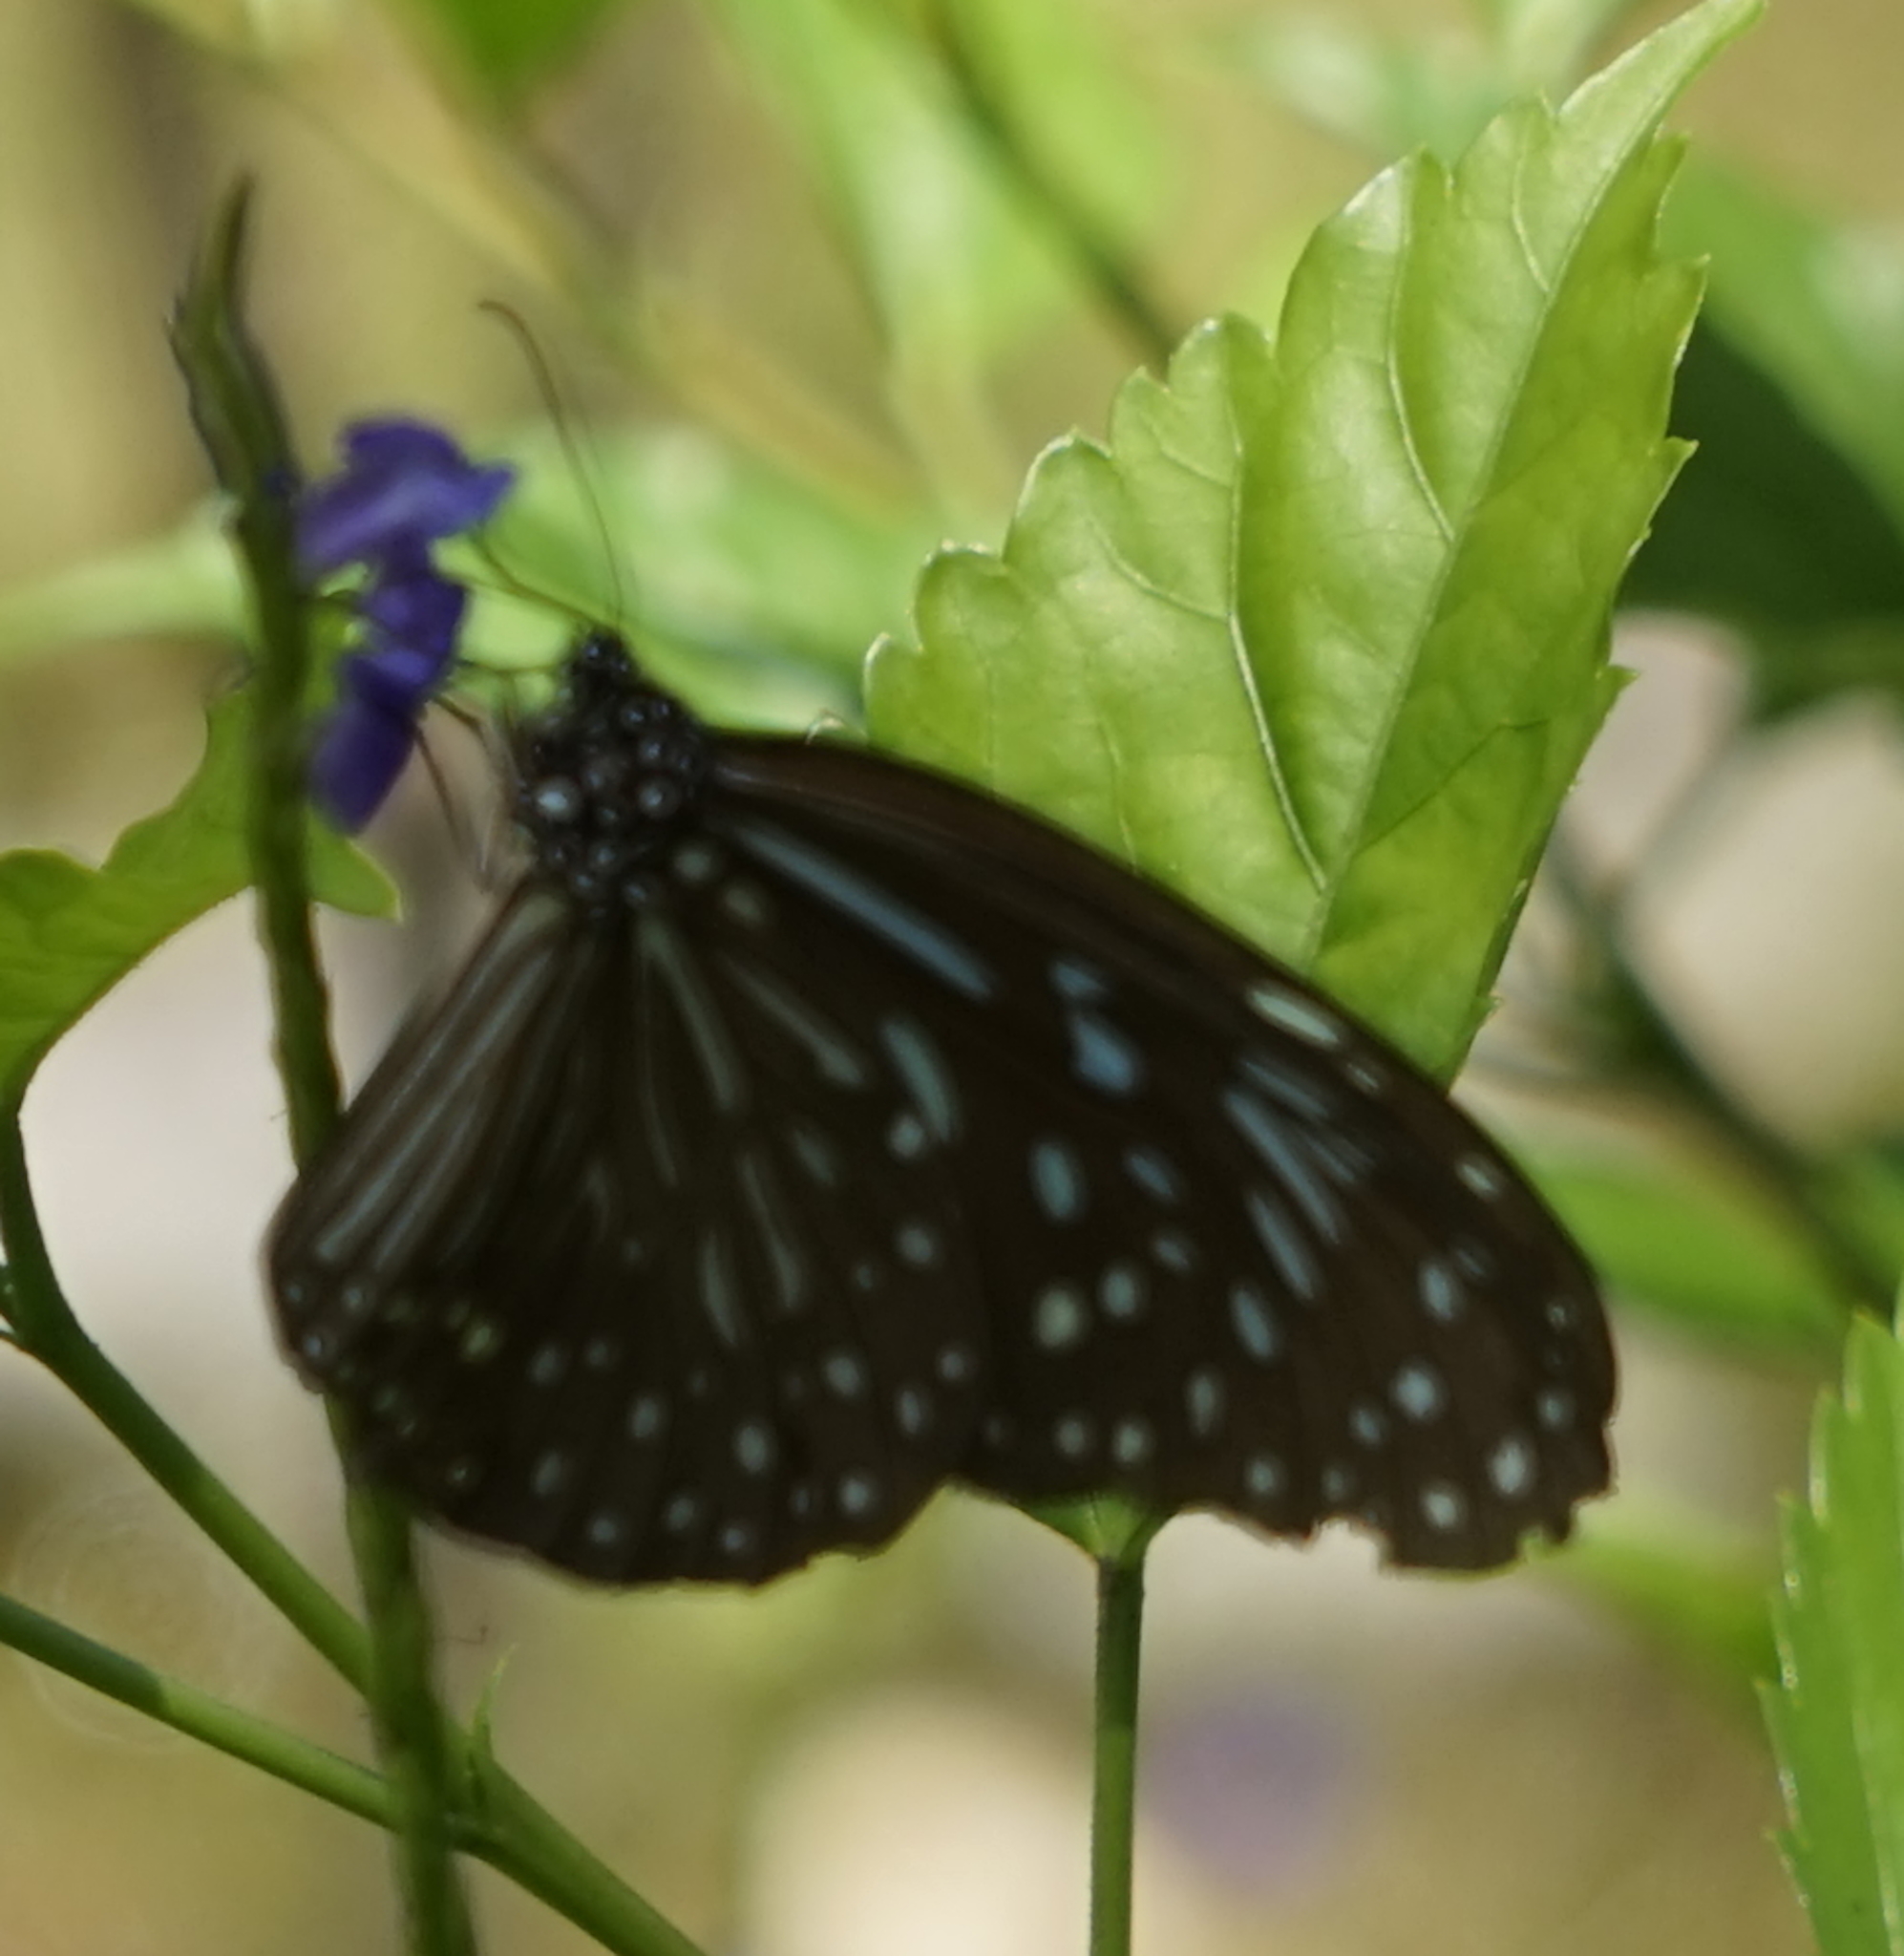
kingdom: Animalia
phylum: Arthropoda
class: Insecta
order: Lepidoptera
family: Nymphalidae
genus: Tirumala
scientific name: Tirumala septentrionis
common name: Dark blue tiger butterfly
